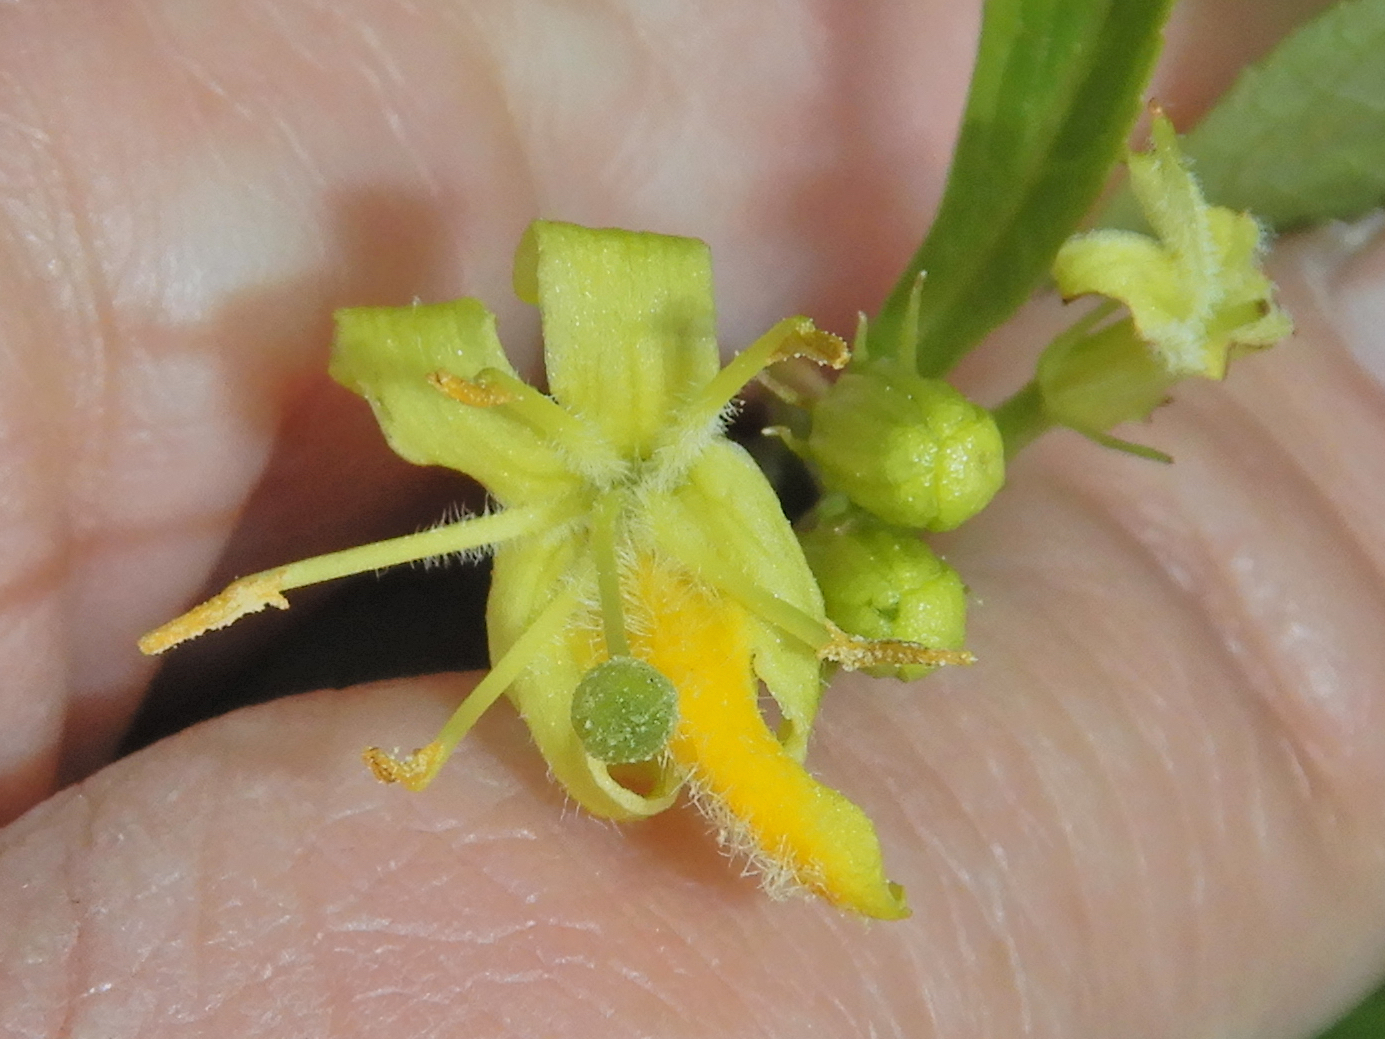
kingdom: Plantae
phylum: Tracheophyta
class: Magnoliopsida
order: Dipsacales
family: Caprifoliaceae
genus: Diervilla
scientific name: Diervilla lonicera
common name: Bush-honeysuckle
